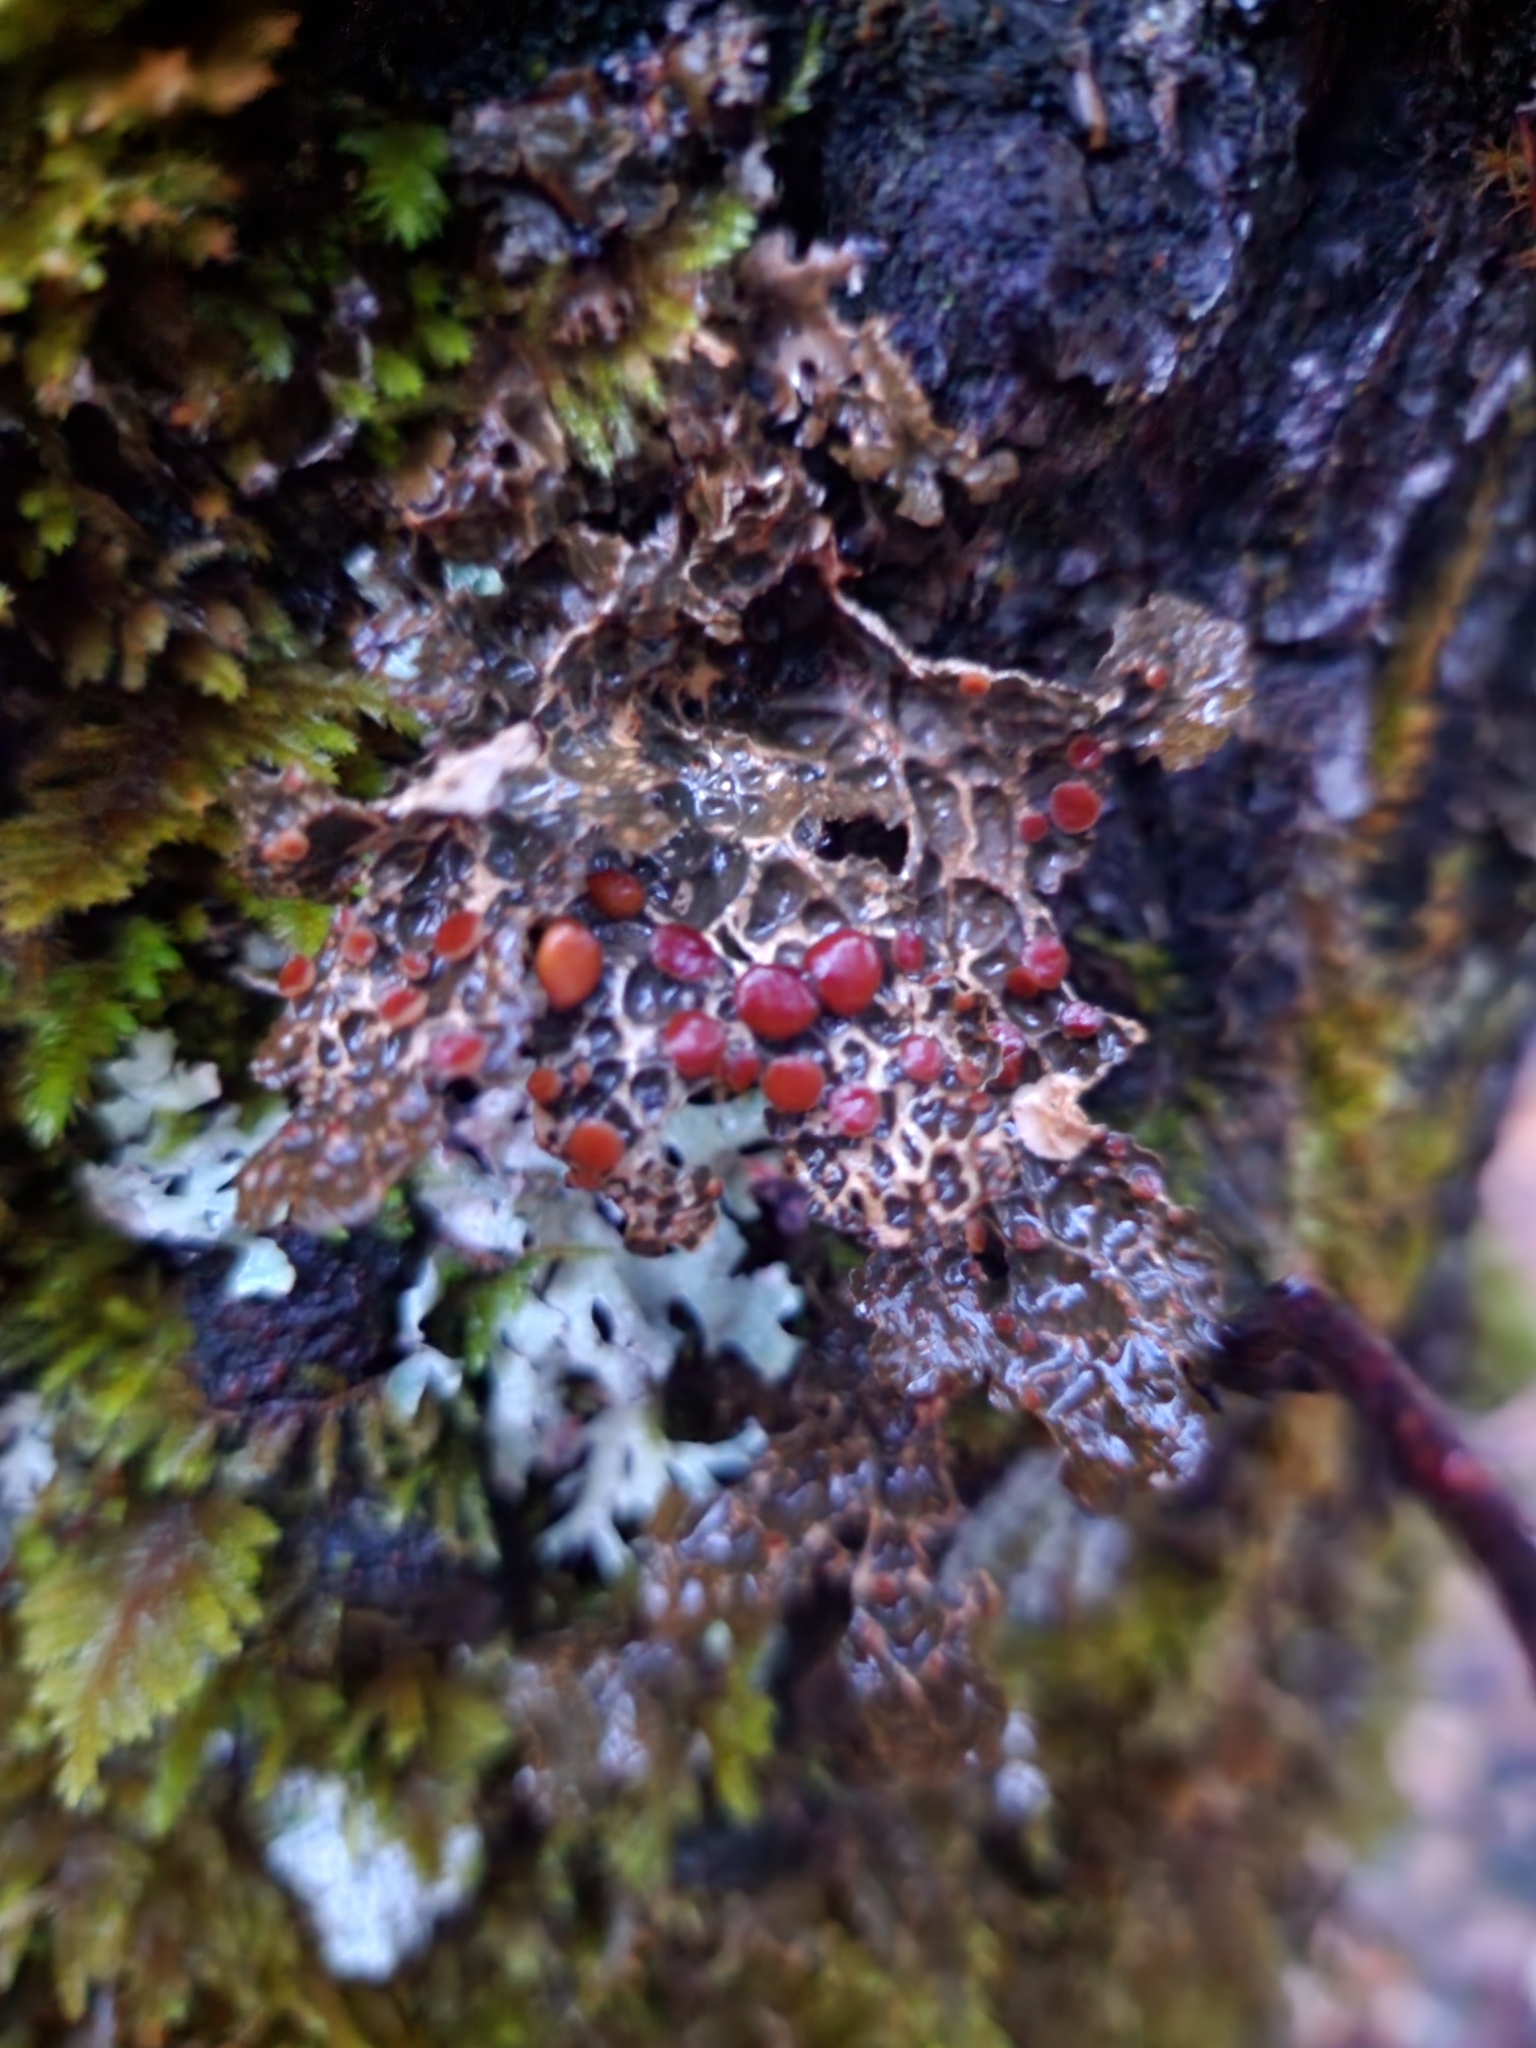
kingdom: Fungi
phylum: Ascomycota
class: Lecanoromycetes
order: Peltigerales
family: Lobariaceae
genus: Lobaria
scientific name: Lobaria anthraspis
